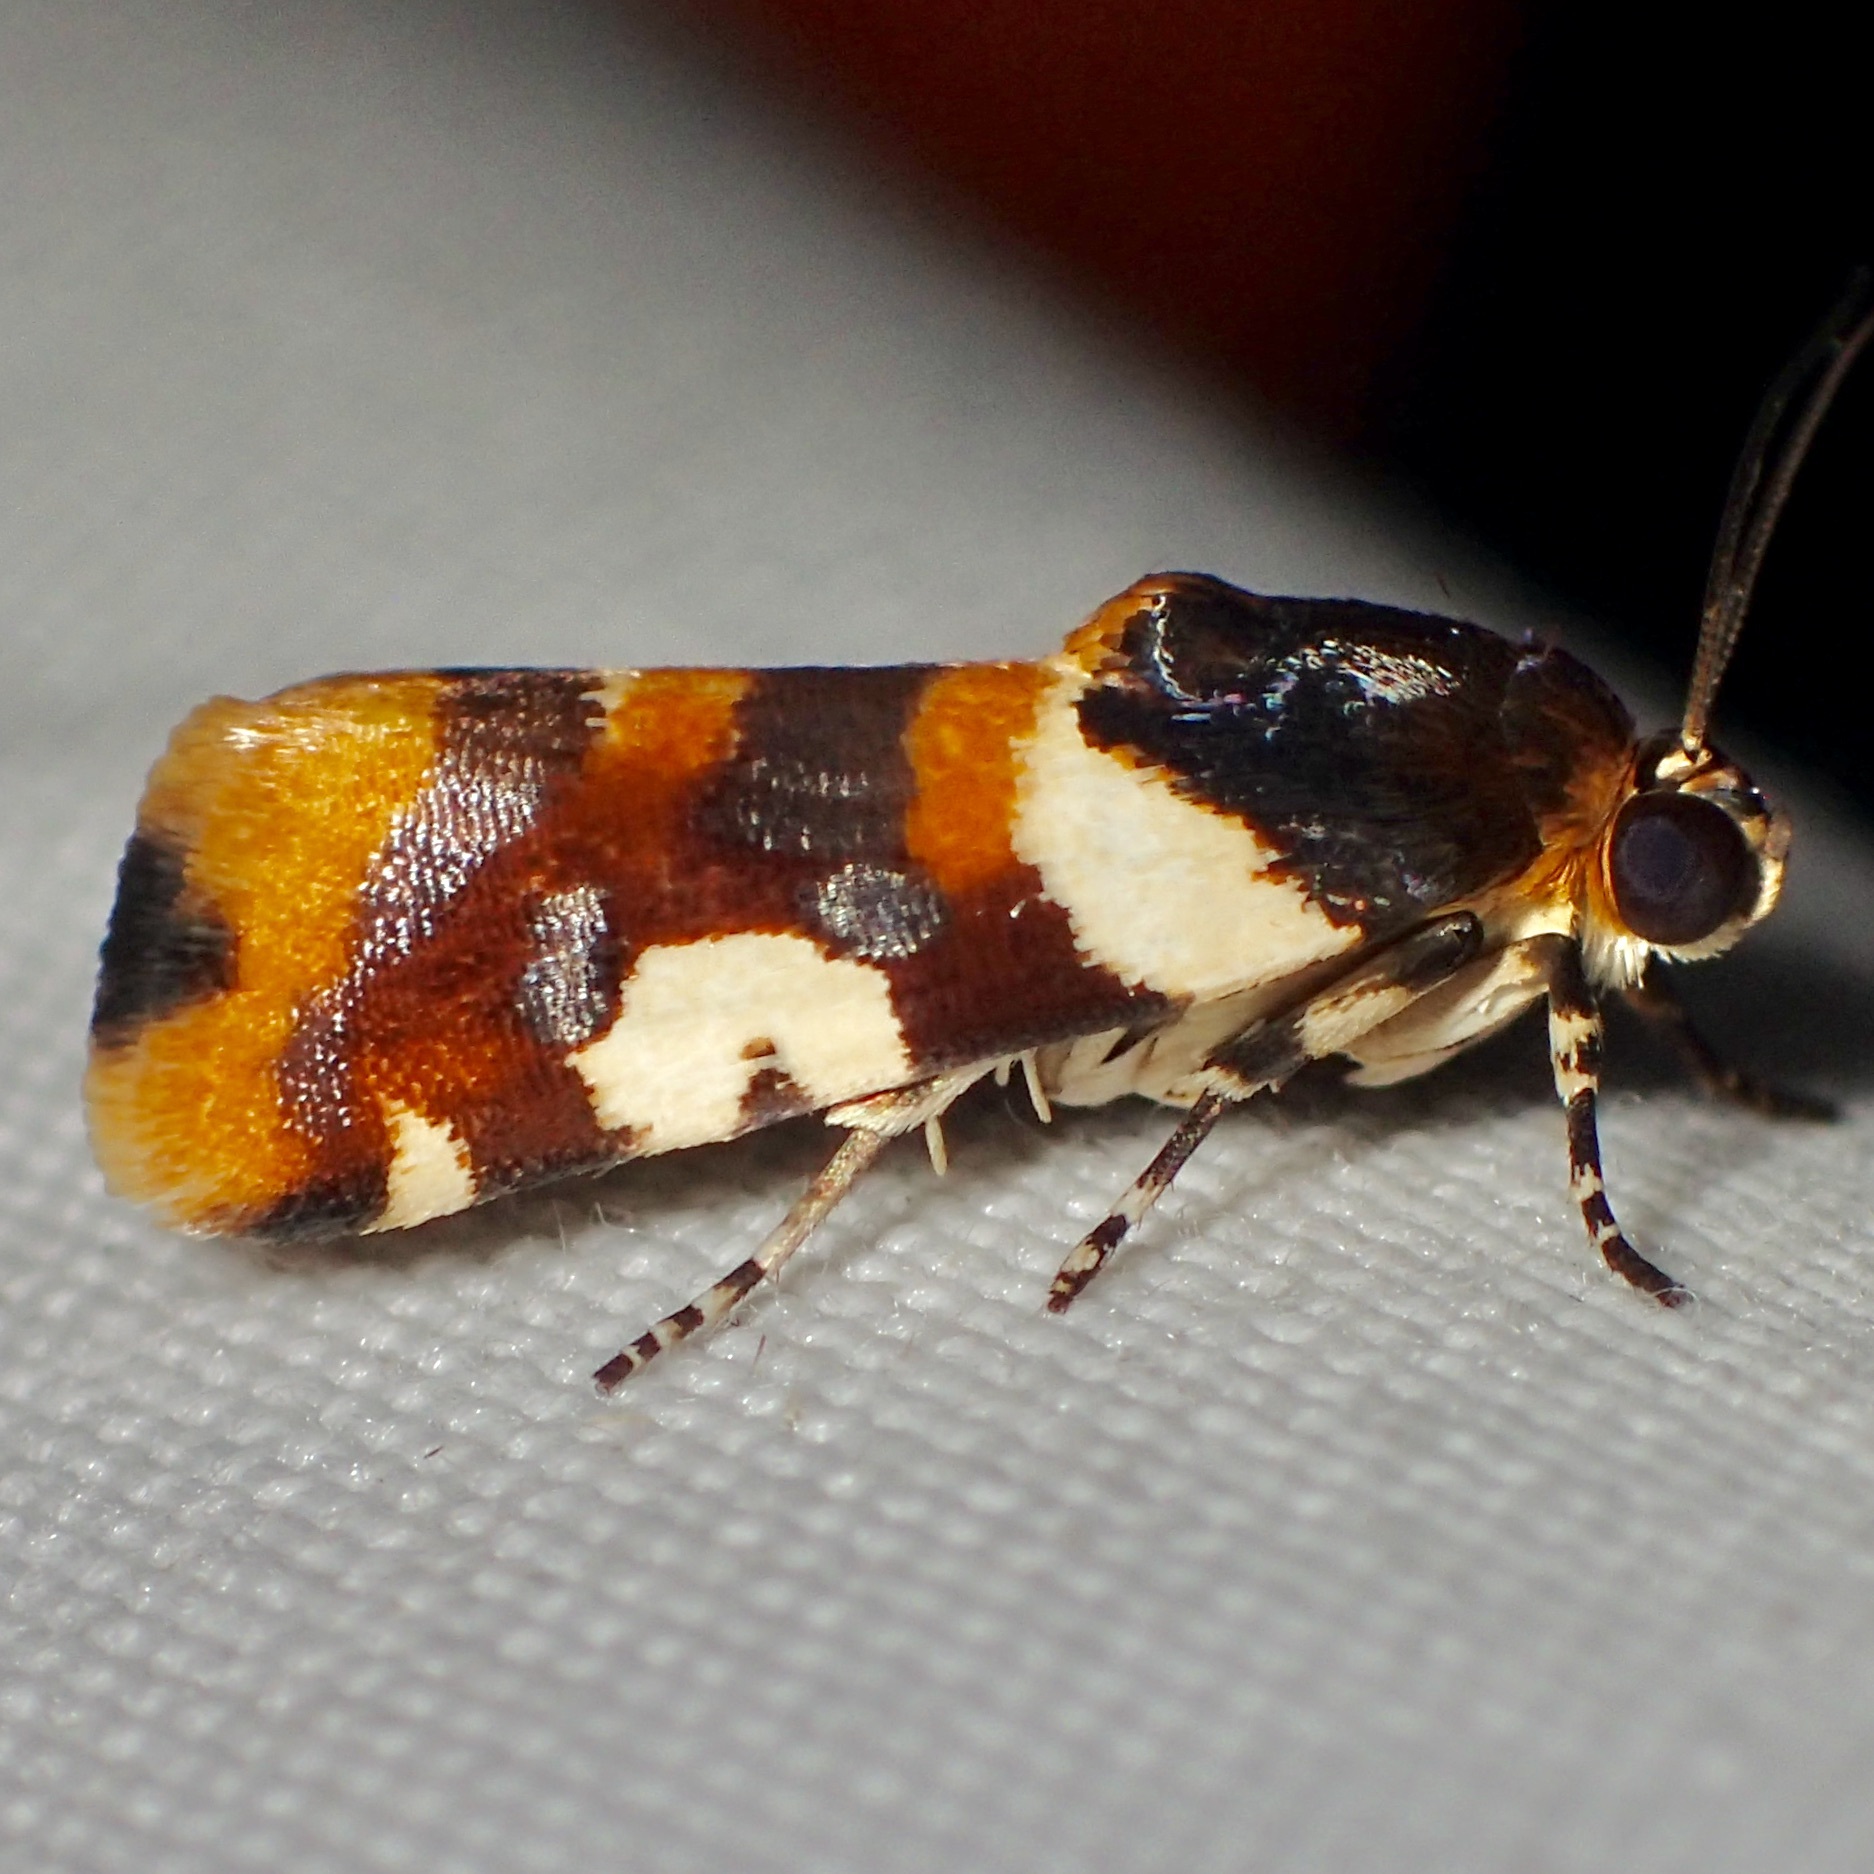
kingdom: Animalia
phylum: Arthropoda
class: Insecta
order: Lepidoptera
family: Noctuidae
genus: Acontia
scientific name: Acontia dama
